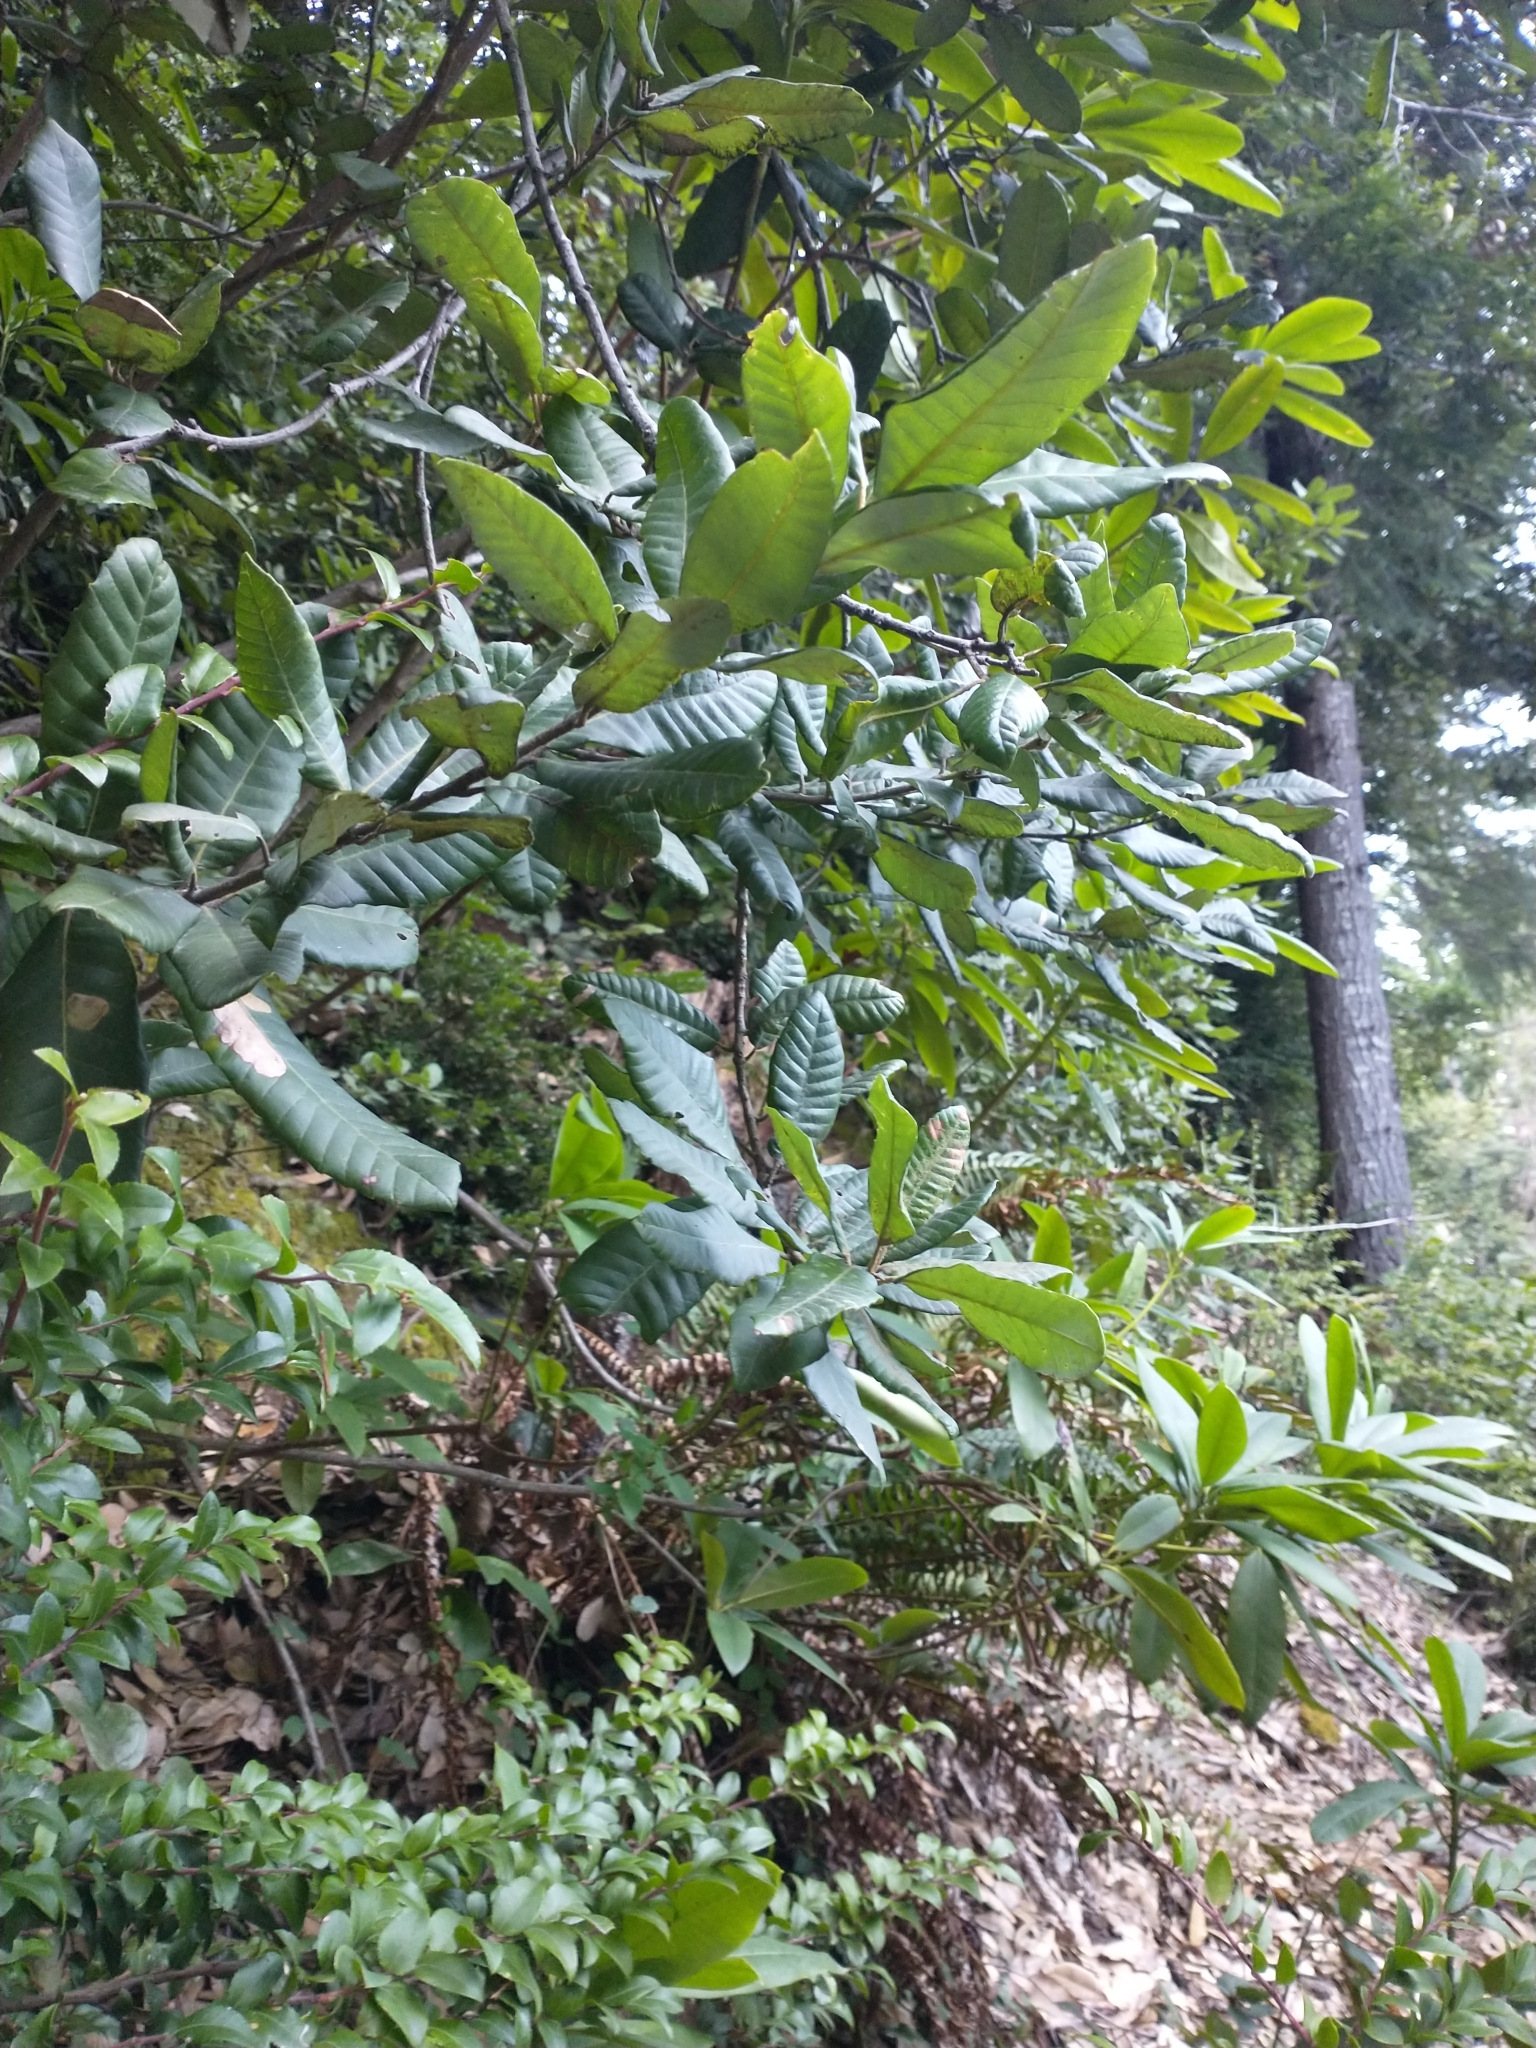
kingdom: Plantae
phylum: Tracheophyta
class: Magnoliopsida
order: Fagales
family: Fagaceae
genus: Notholithocarpus
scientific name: Notholithocarpus densiflorus
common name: Tan bark oak
